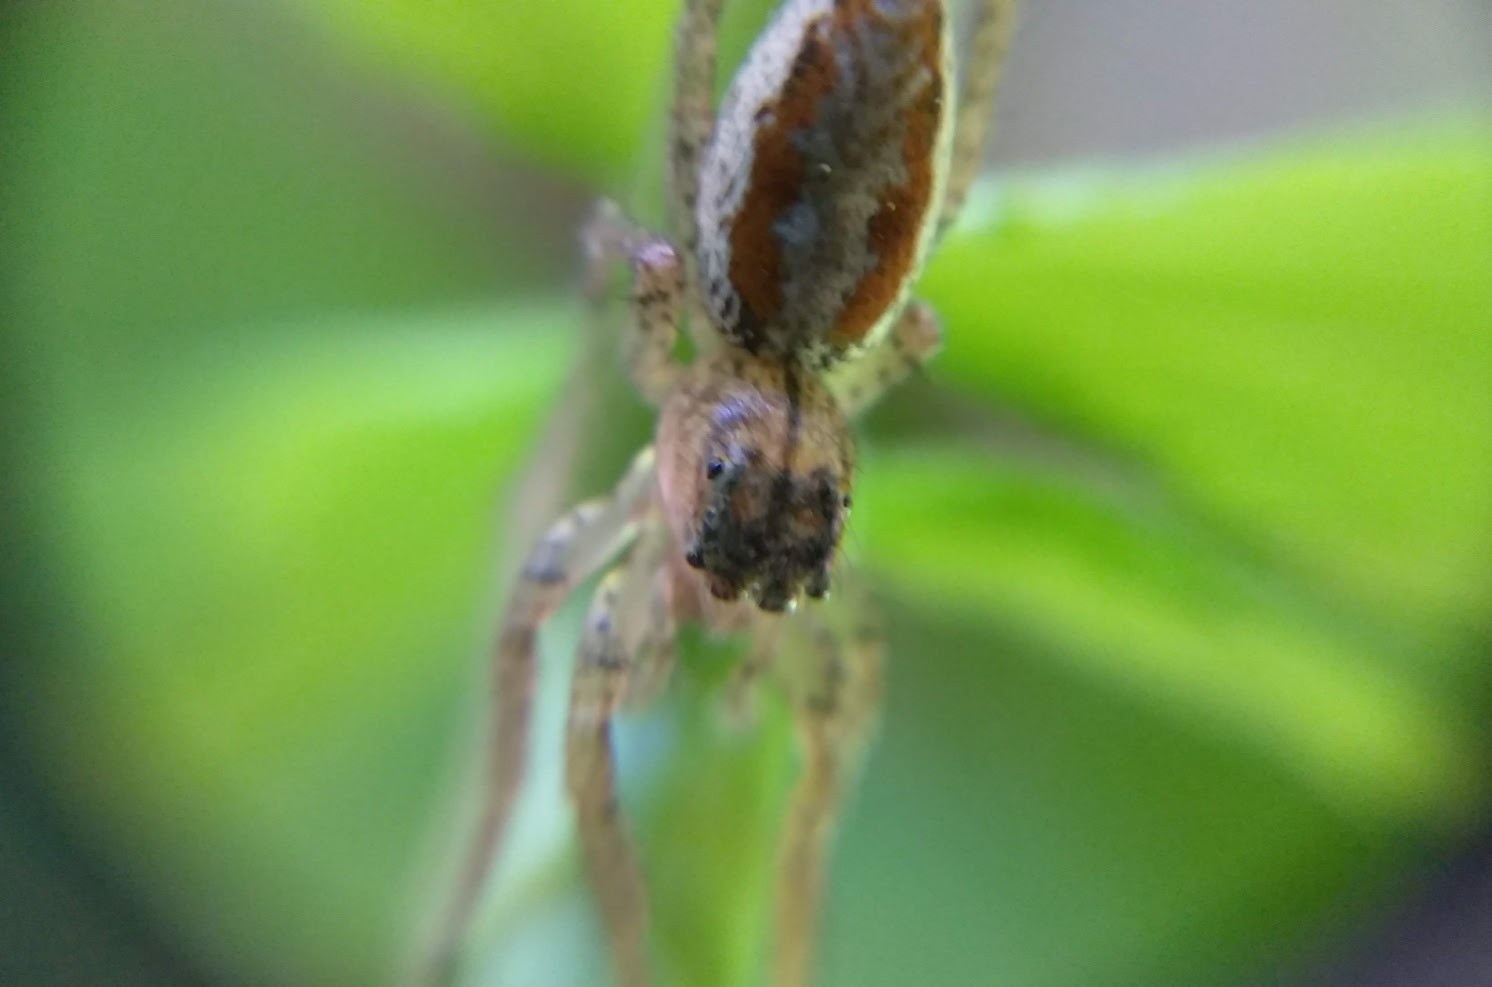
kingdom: Animalia
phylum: Arthropoda
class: Arachnida
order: Araneae
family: Salticidae
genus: Maevia
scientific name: Maevia inclemens
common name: Dimorphic jumper
